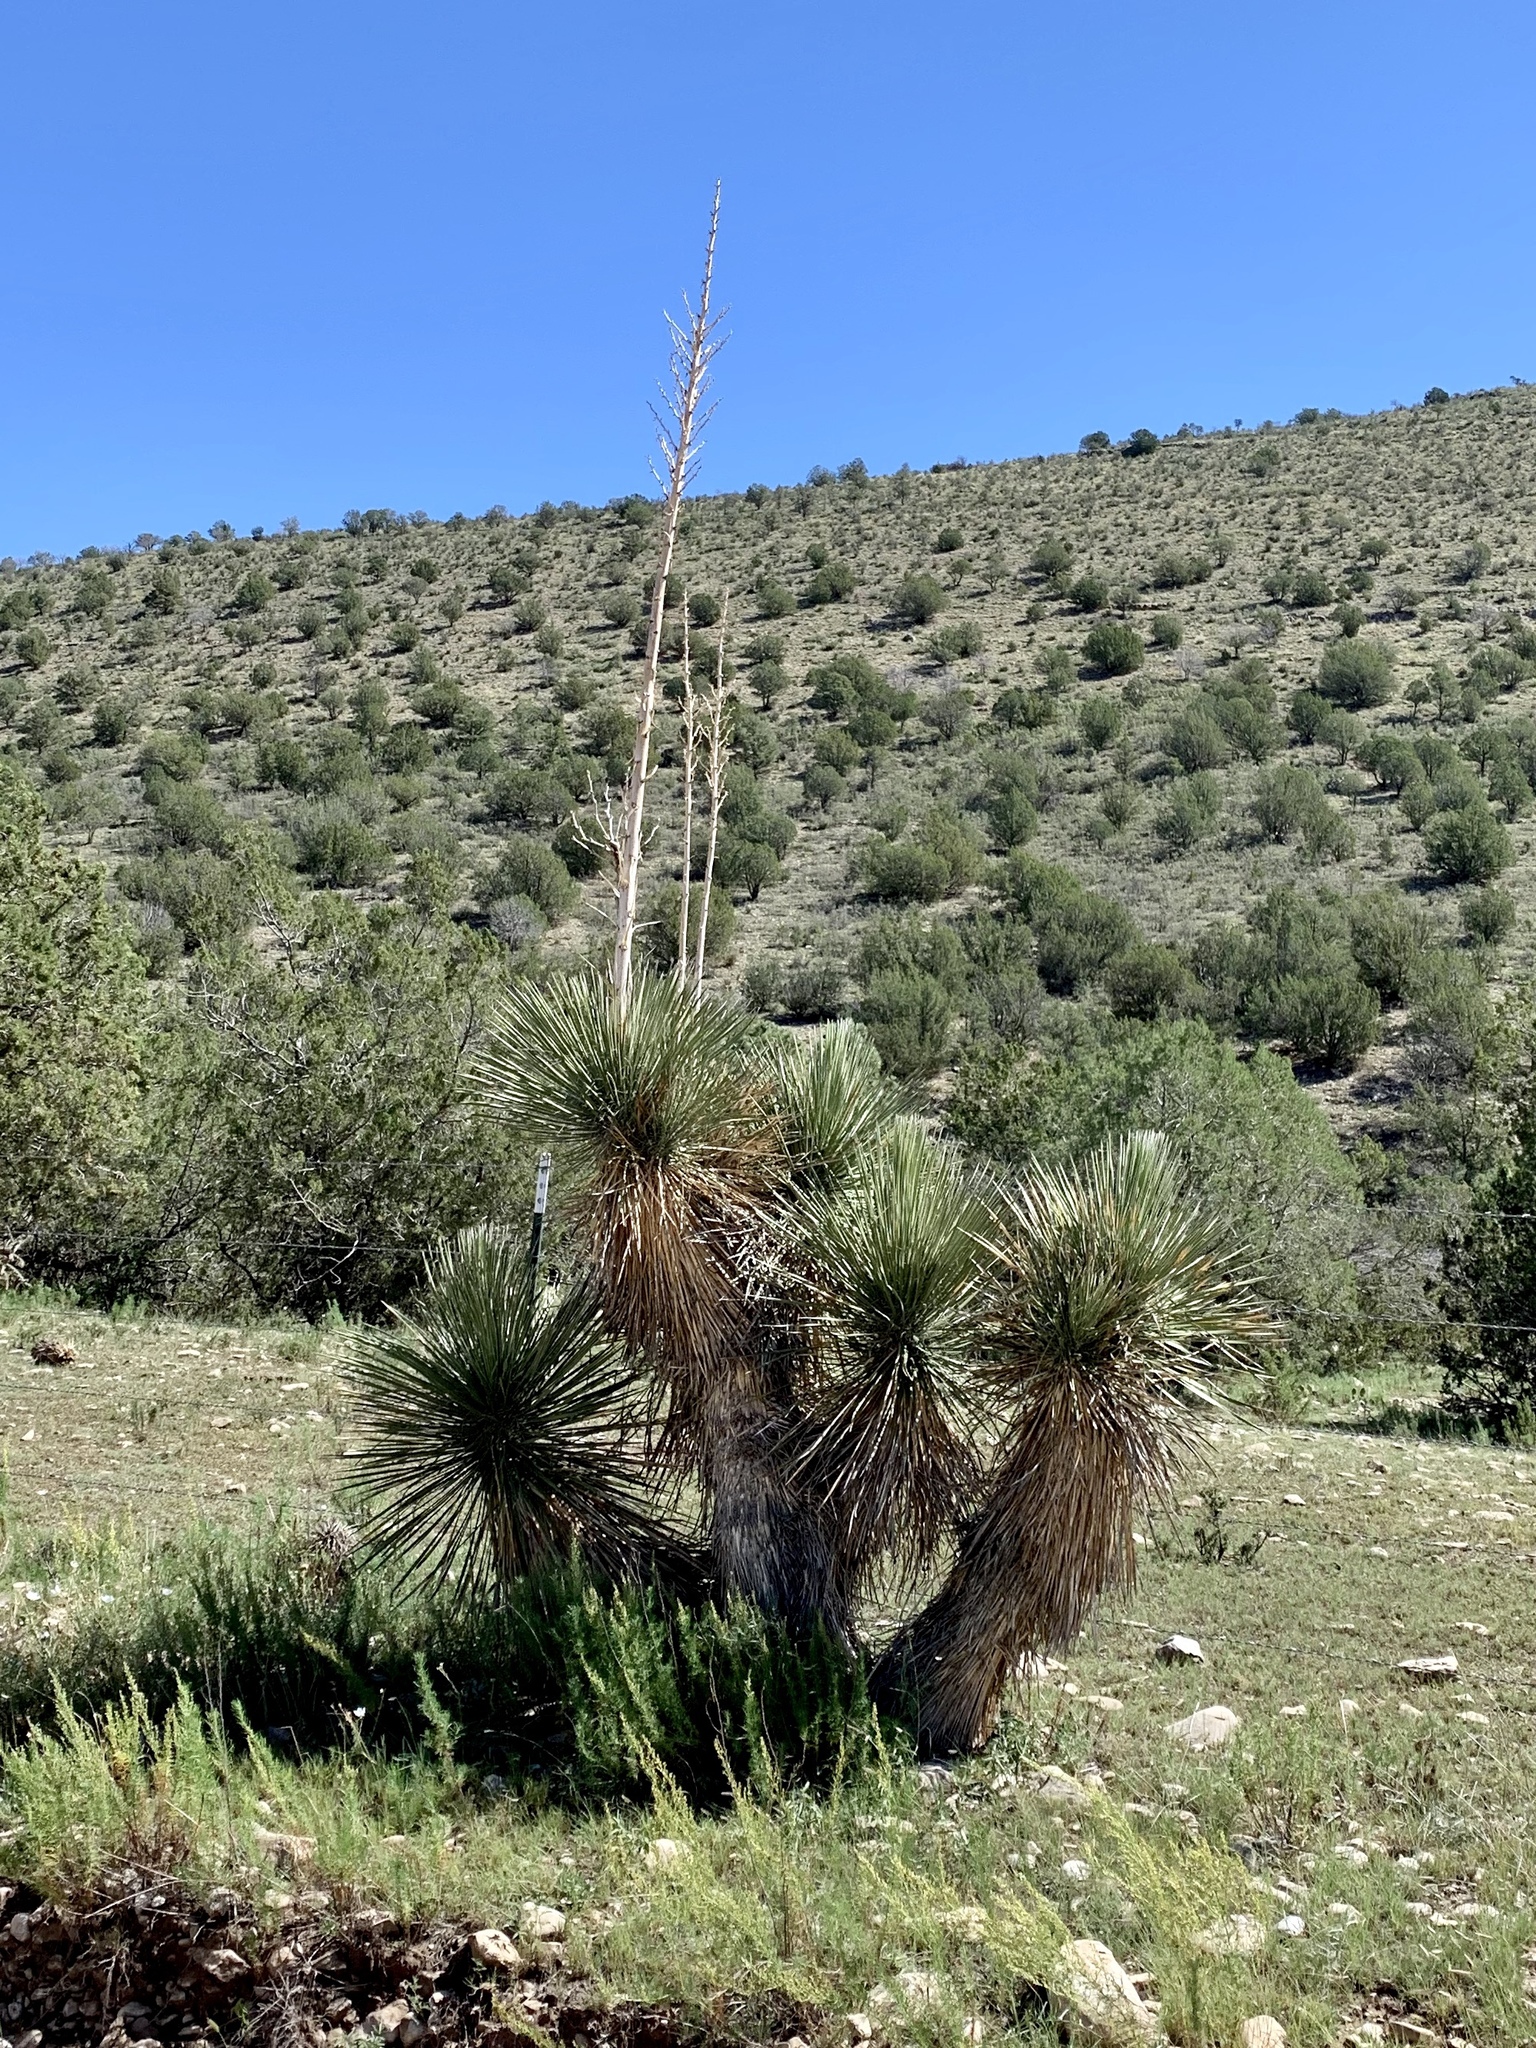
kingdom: Plantae
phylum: Tracheophyta
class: Liliopsida
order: Asparagales
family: Asparagaceae
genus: Yucca
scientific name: Yucca elata
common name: Palmella
